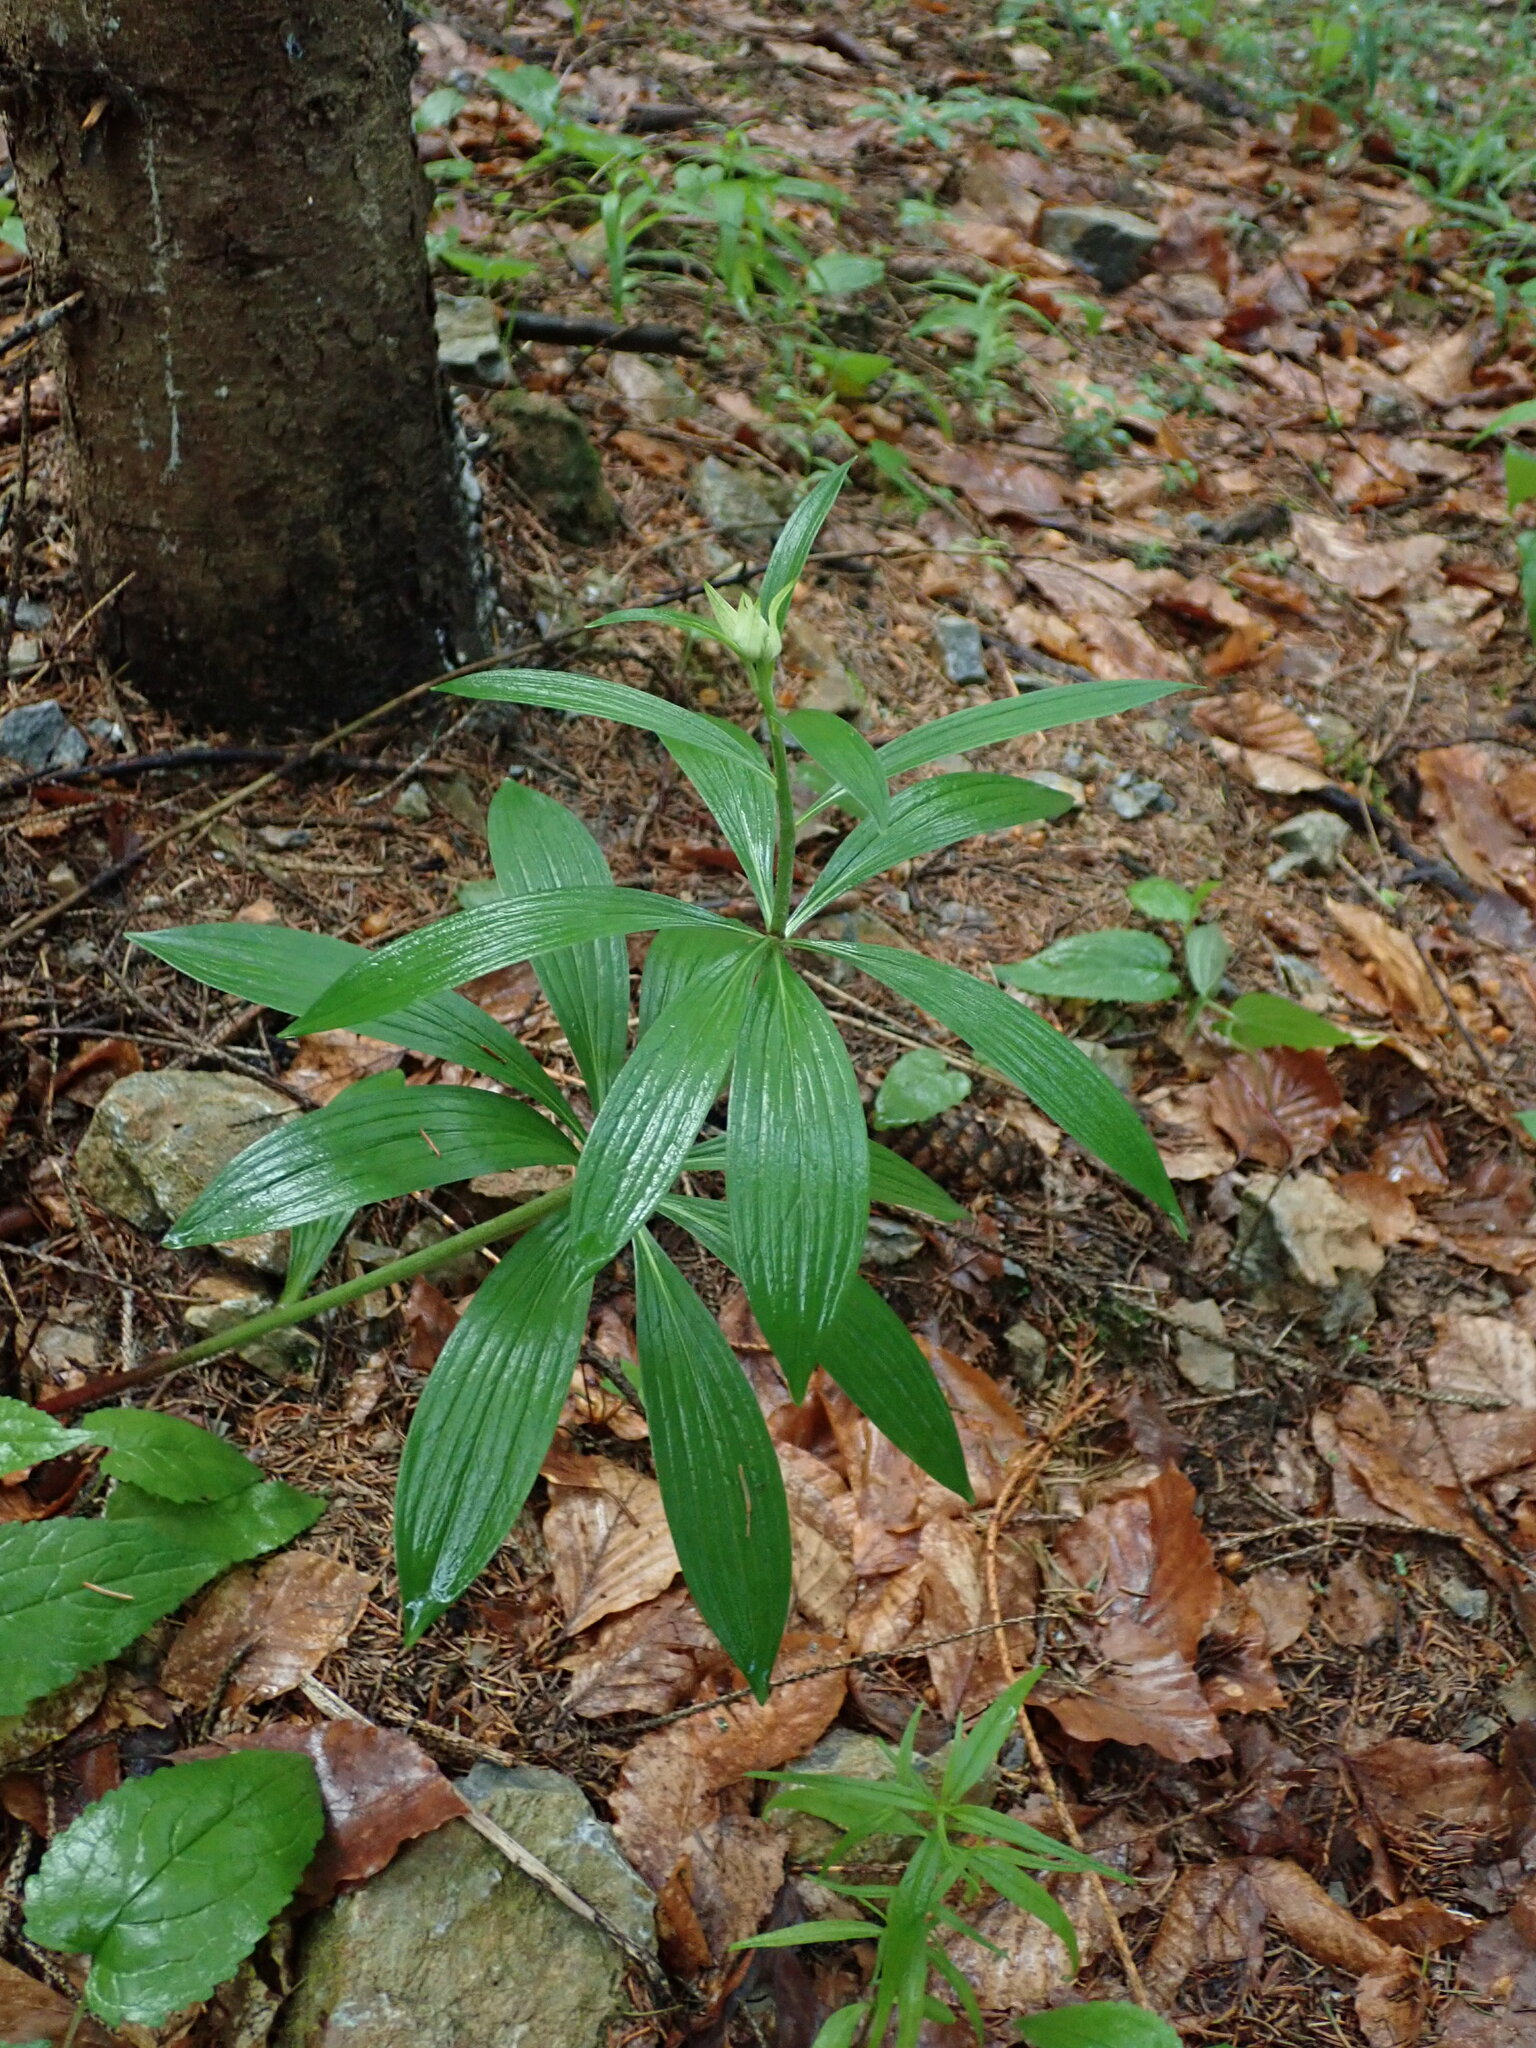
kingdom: Plantae
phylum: Tracheophyta
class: Liliopsida
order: Liliales
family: Liliaceae
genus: Lilium
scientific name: Lilium martagon
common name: Martagon lily
